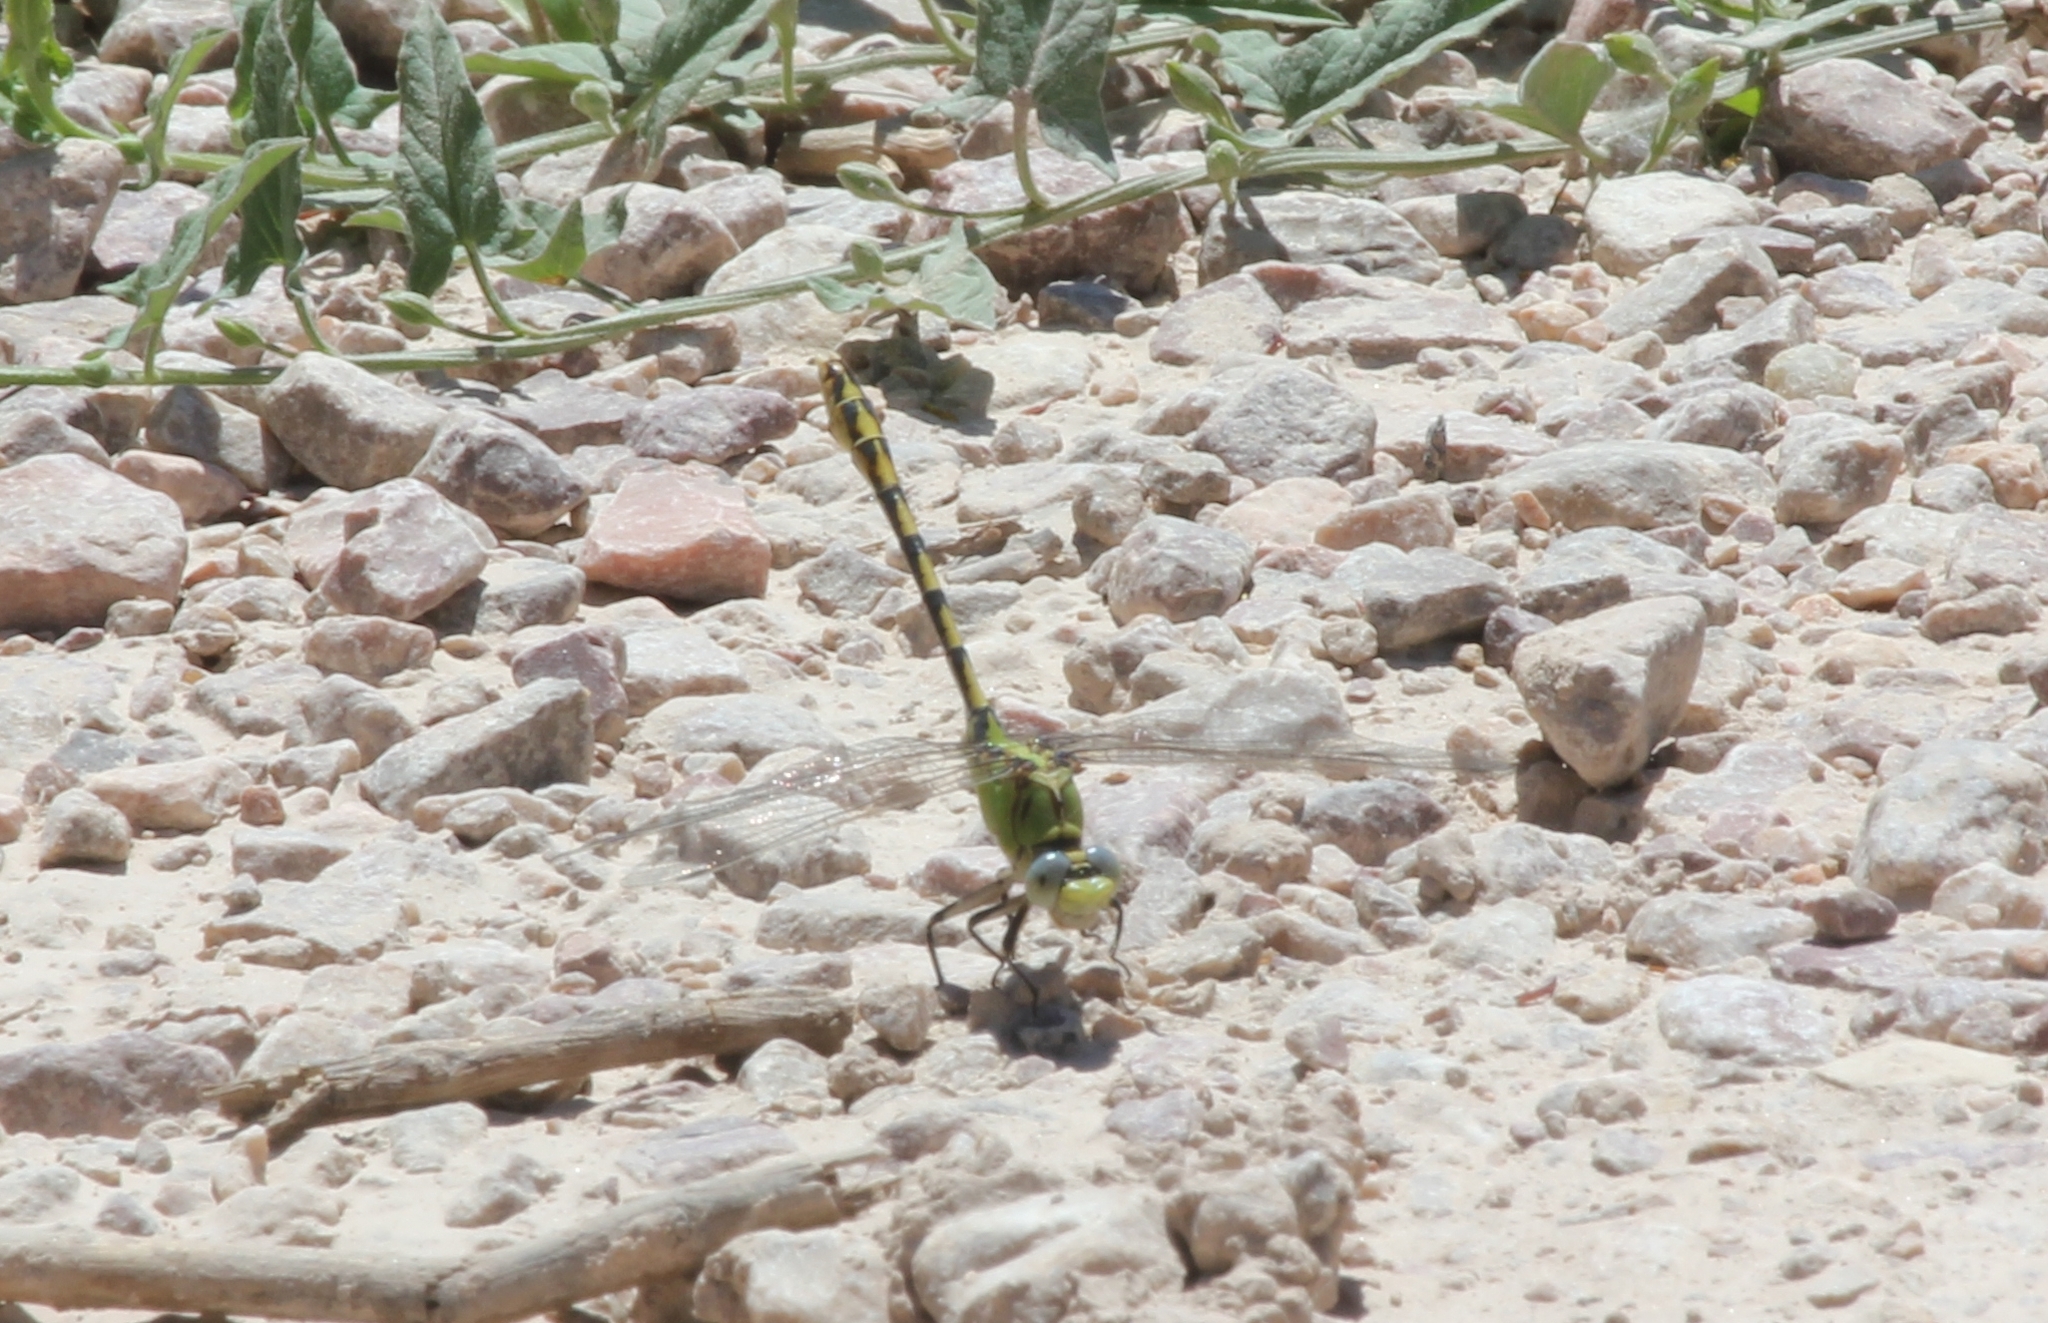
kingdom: Animalia
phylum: Arthropoda
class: Insecta
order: Odonata
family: Gomphidae
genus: Ophiogomphus
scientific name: Ophiogomphus severus
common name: Pale snaketail
